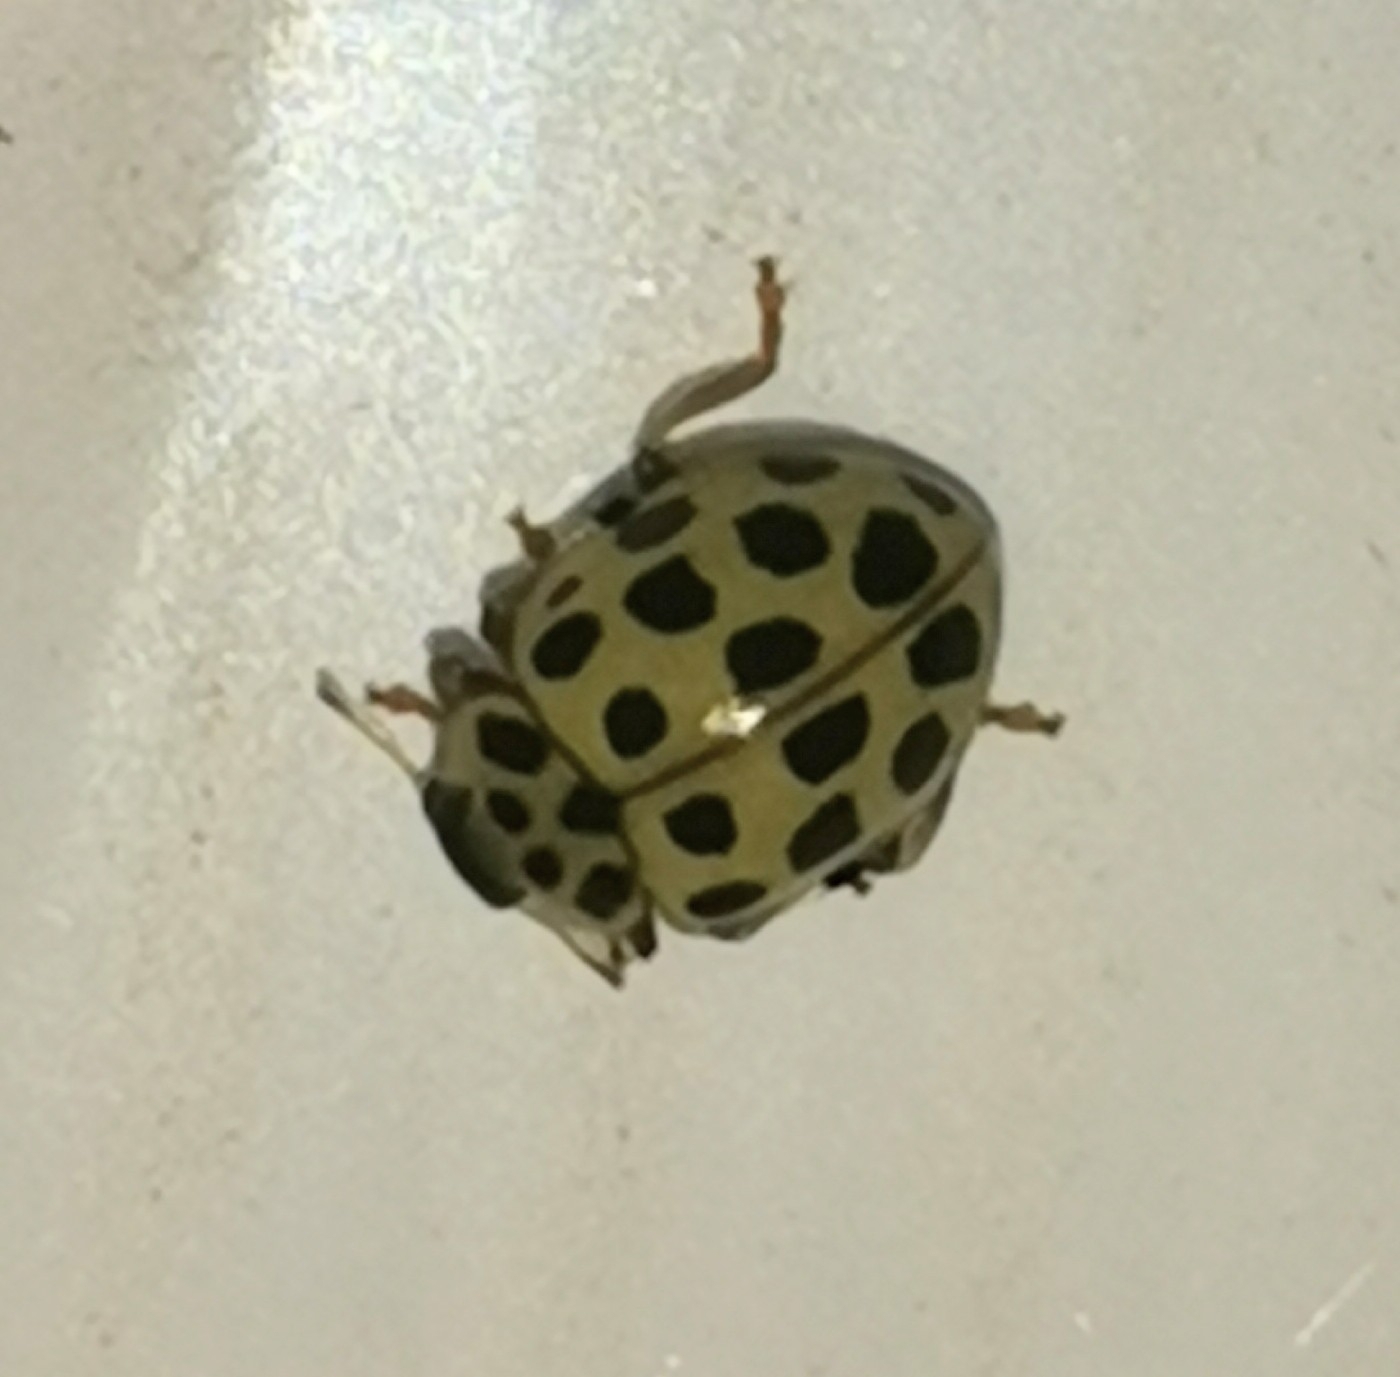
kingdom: Animalia
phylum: Arthropoda
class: Insecta
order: Coleoptera
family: Coccinellidae
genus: Psyllobora
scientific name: Psyllobora vigintiduopunctata
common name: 22-spot ladybird
